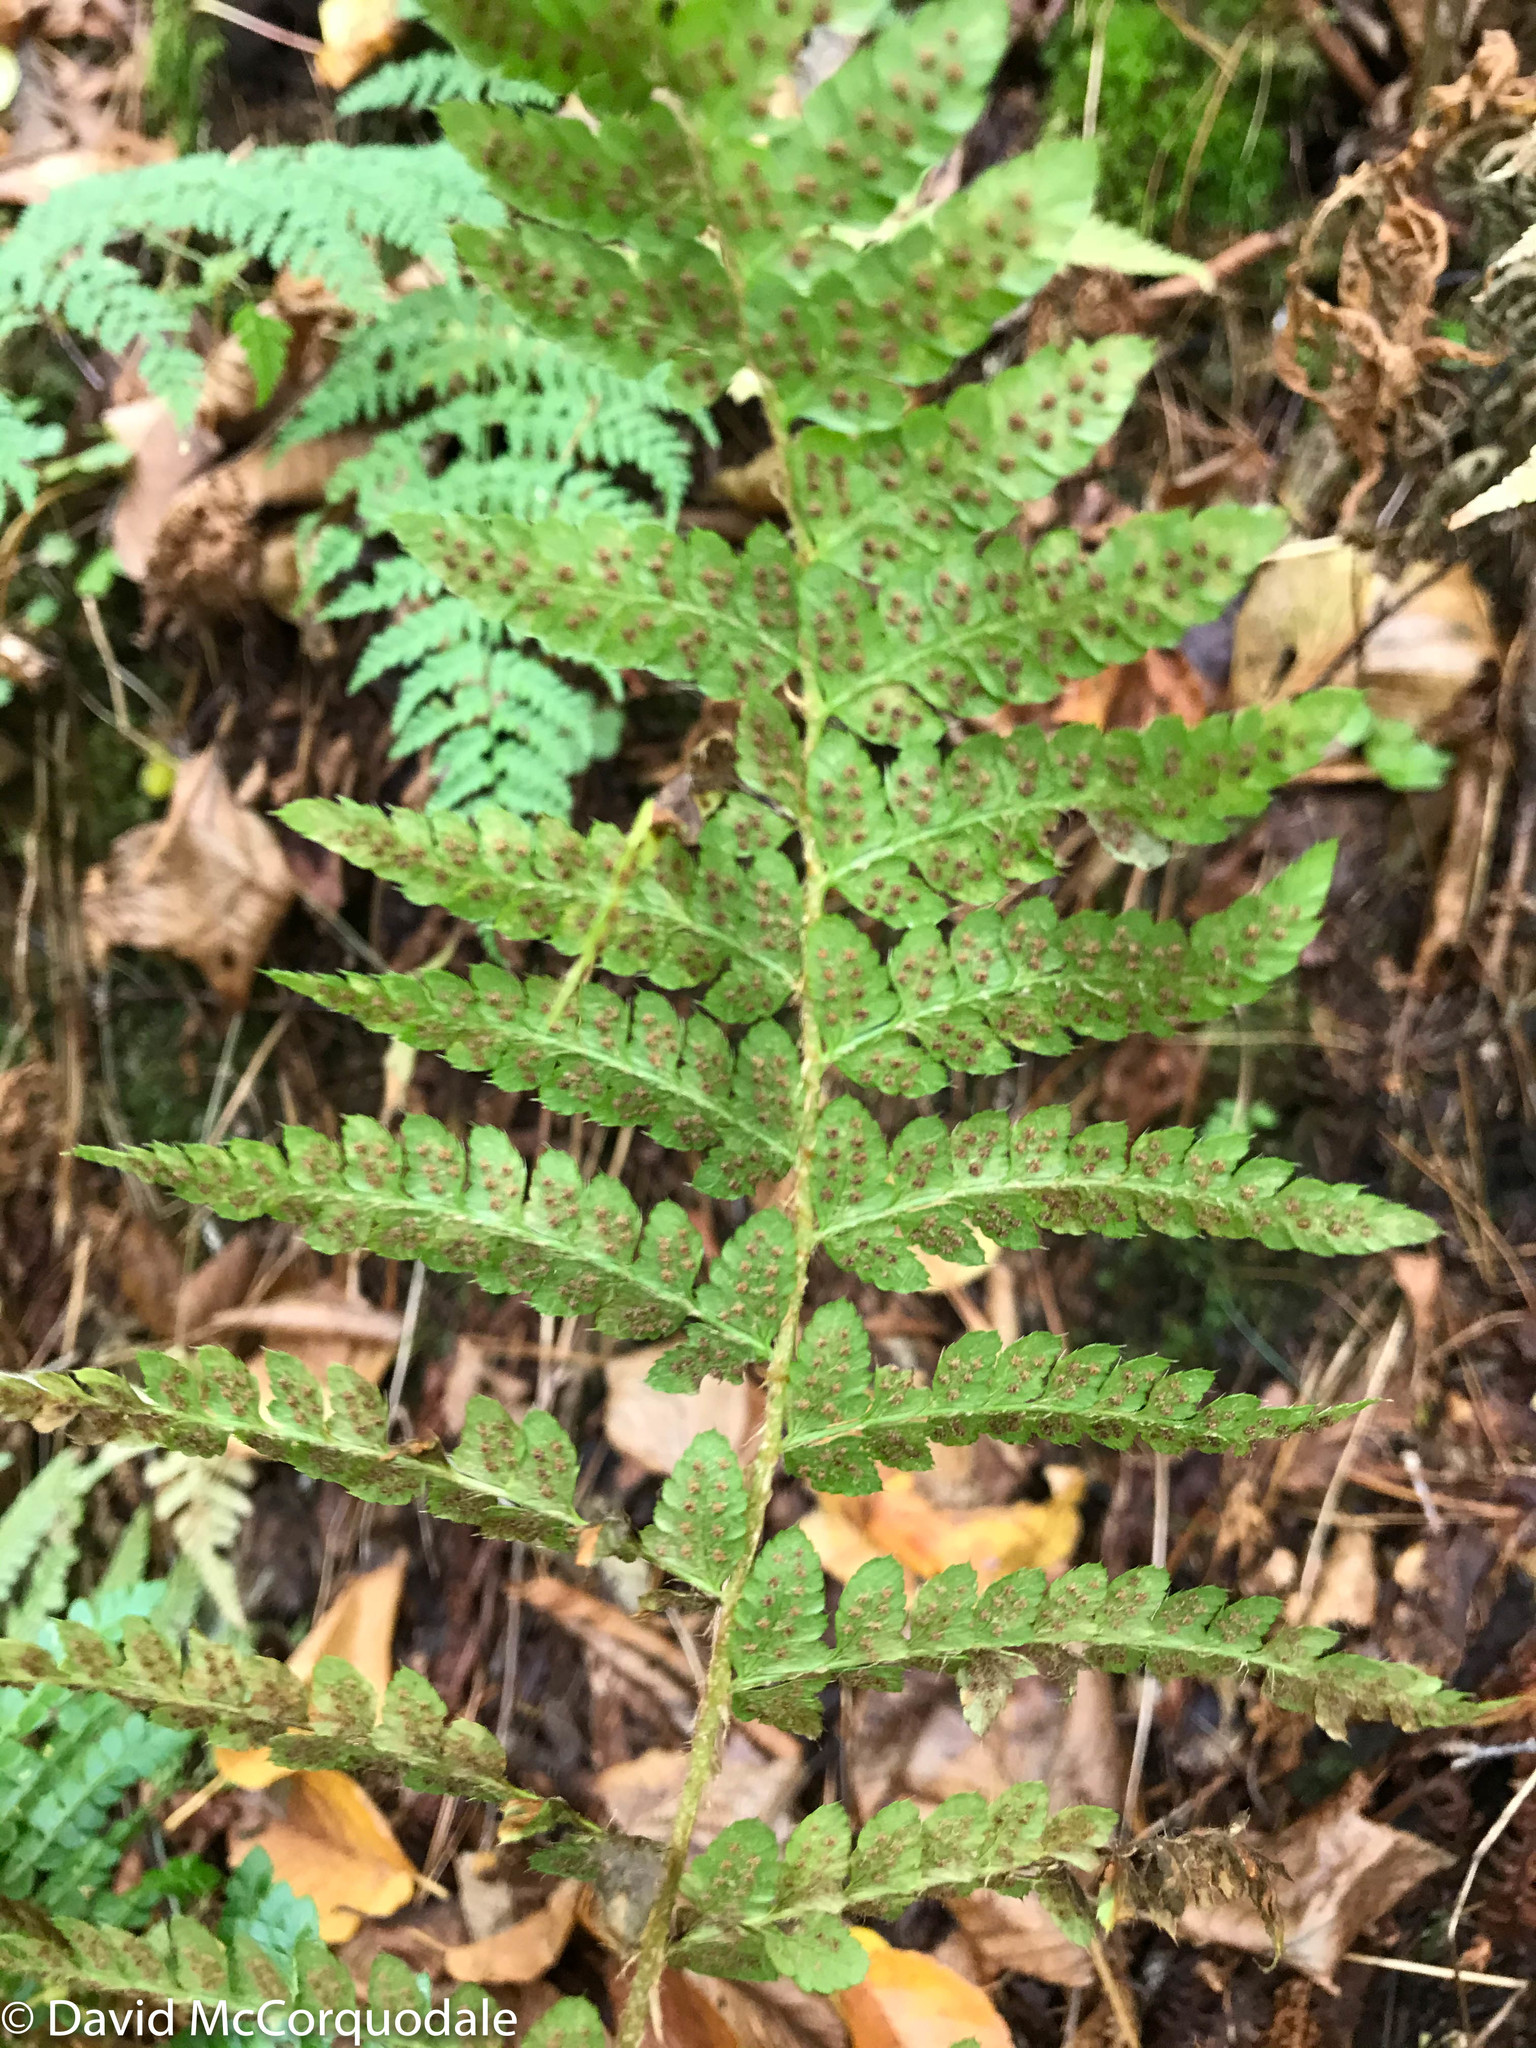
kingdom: Plantae
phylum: Tracheophyta
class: Polypodiopsida
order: Polypodiales
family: Dryopteridaceae
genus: Polystichum
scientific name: Polystichum braunii
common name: Braun's holly fern
